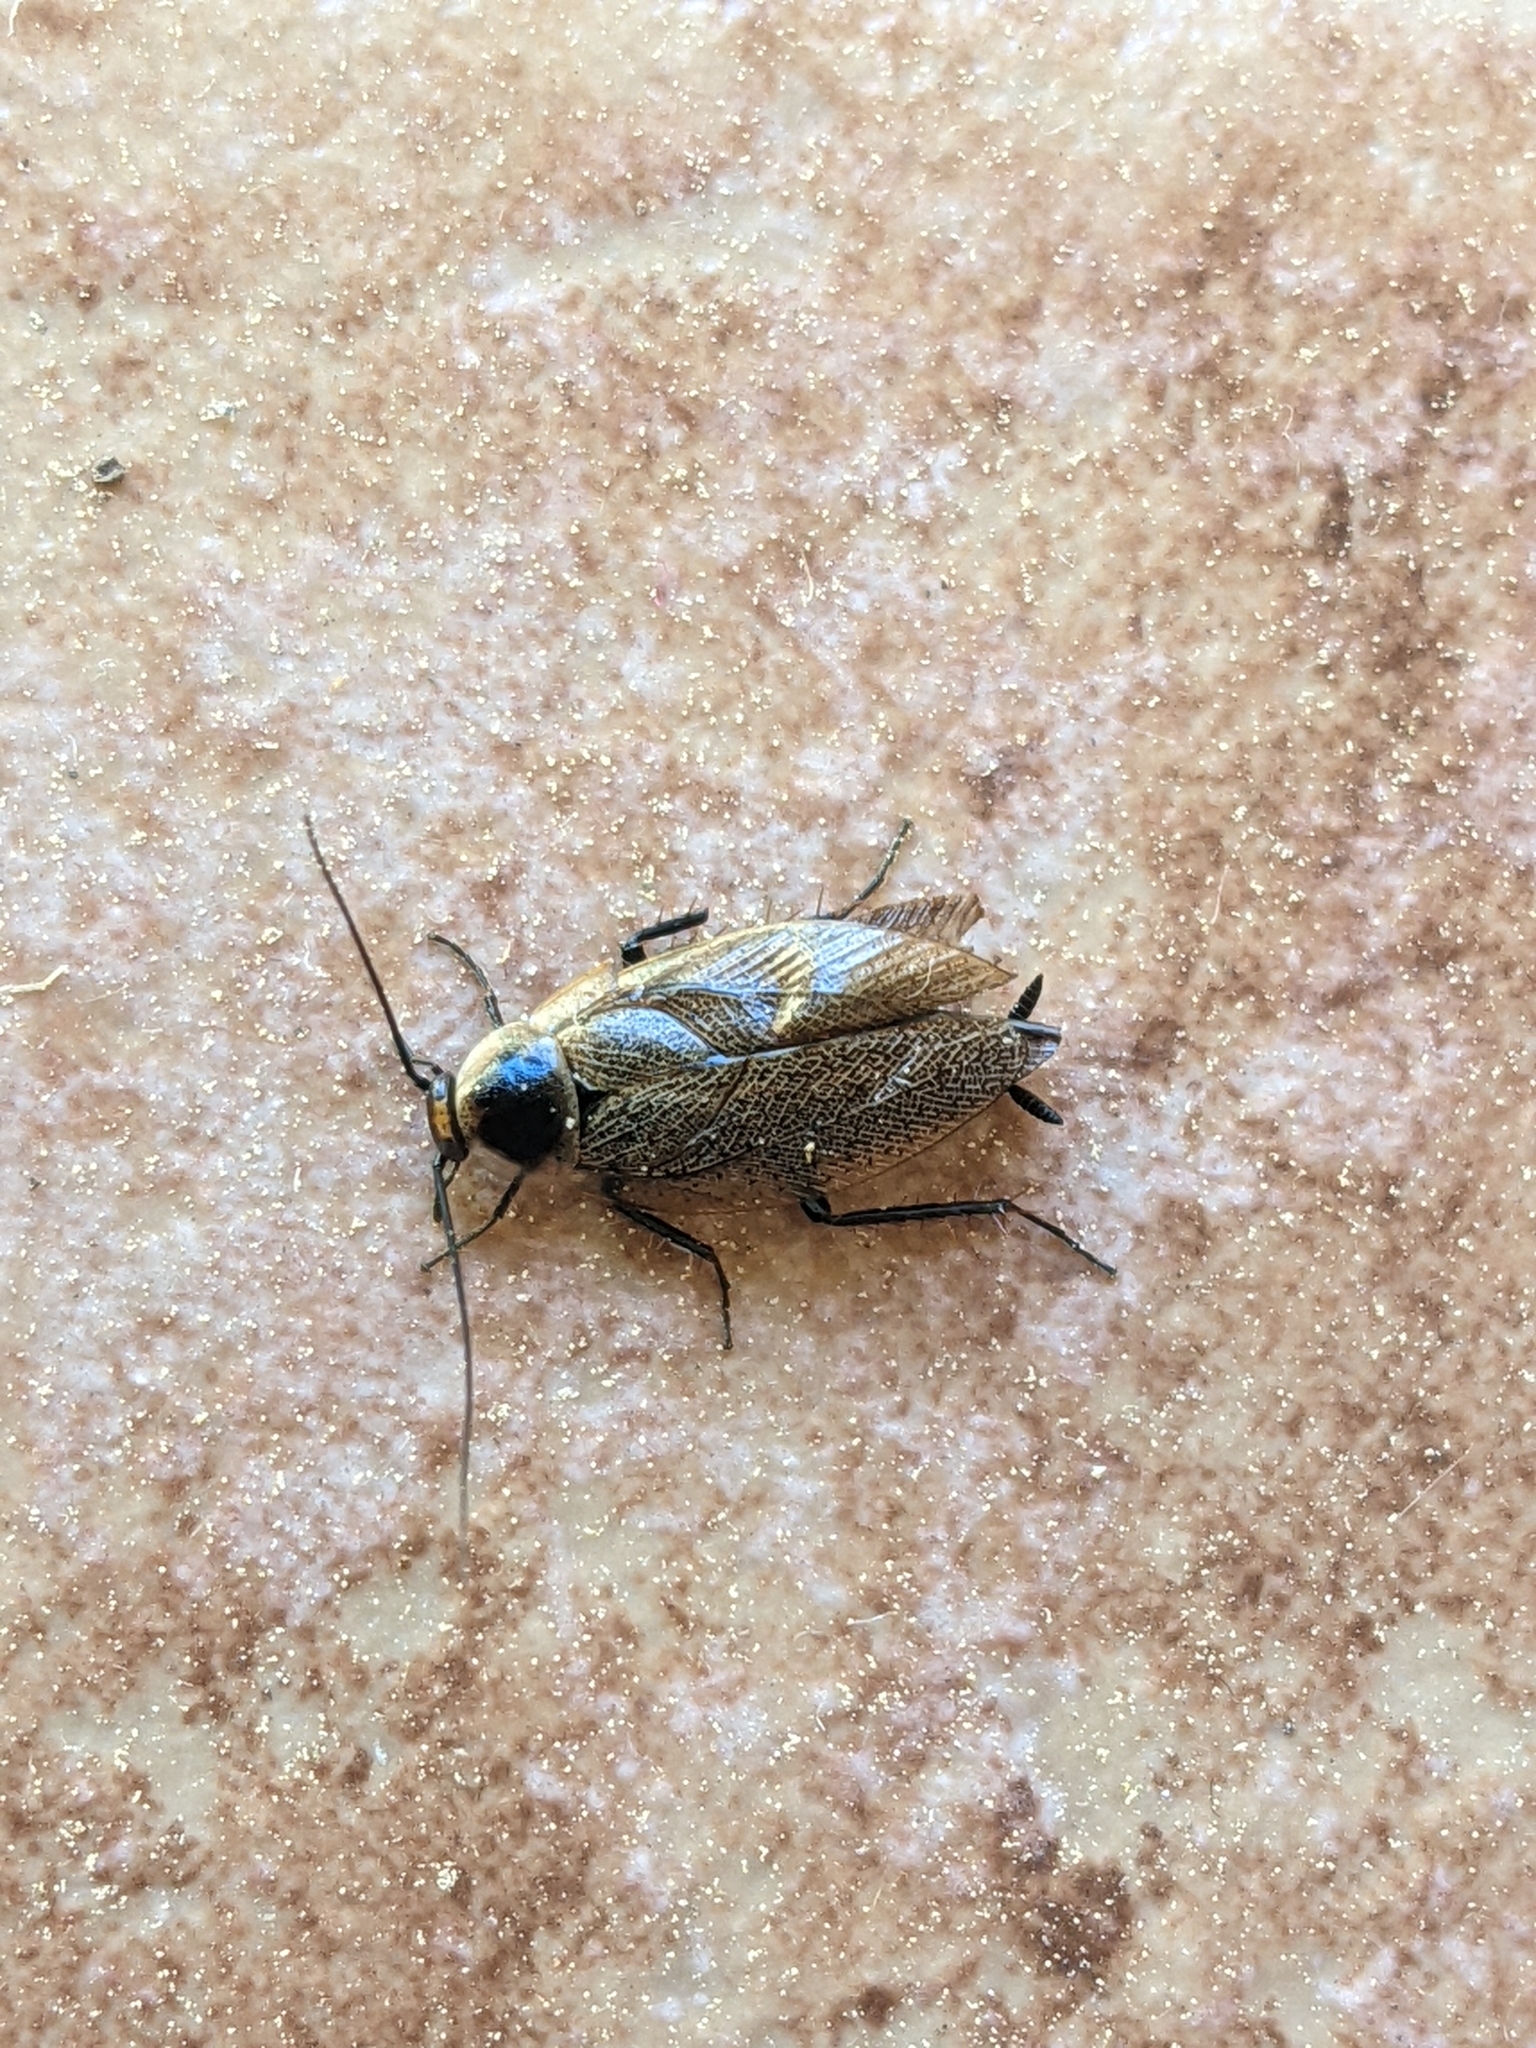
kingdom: Animalia
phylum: Arthropoda
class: Insecta
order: Blattodea
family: Ectobiidae
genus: Ectobius
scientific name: Ectobius erythronotus
